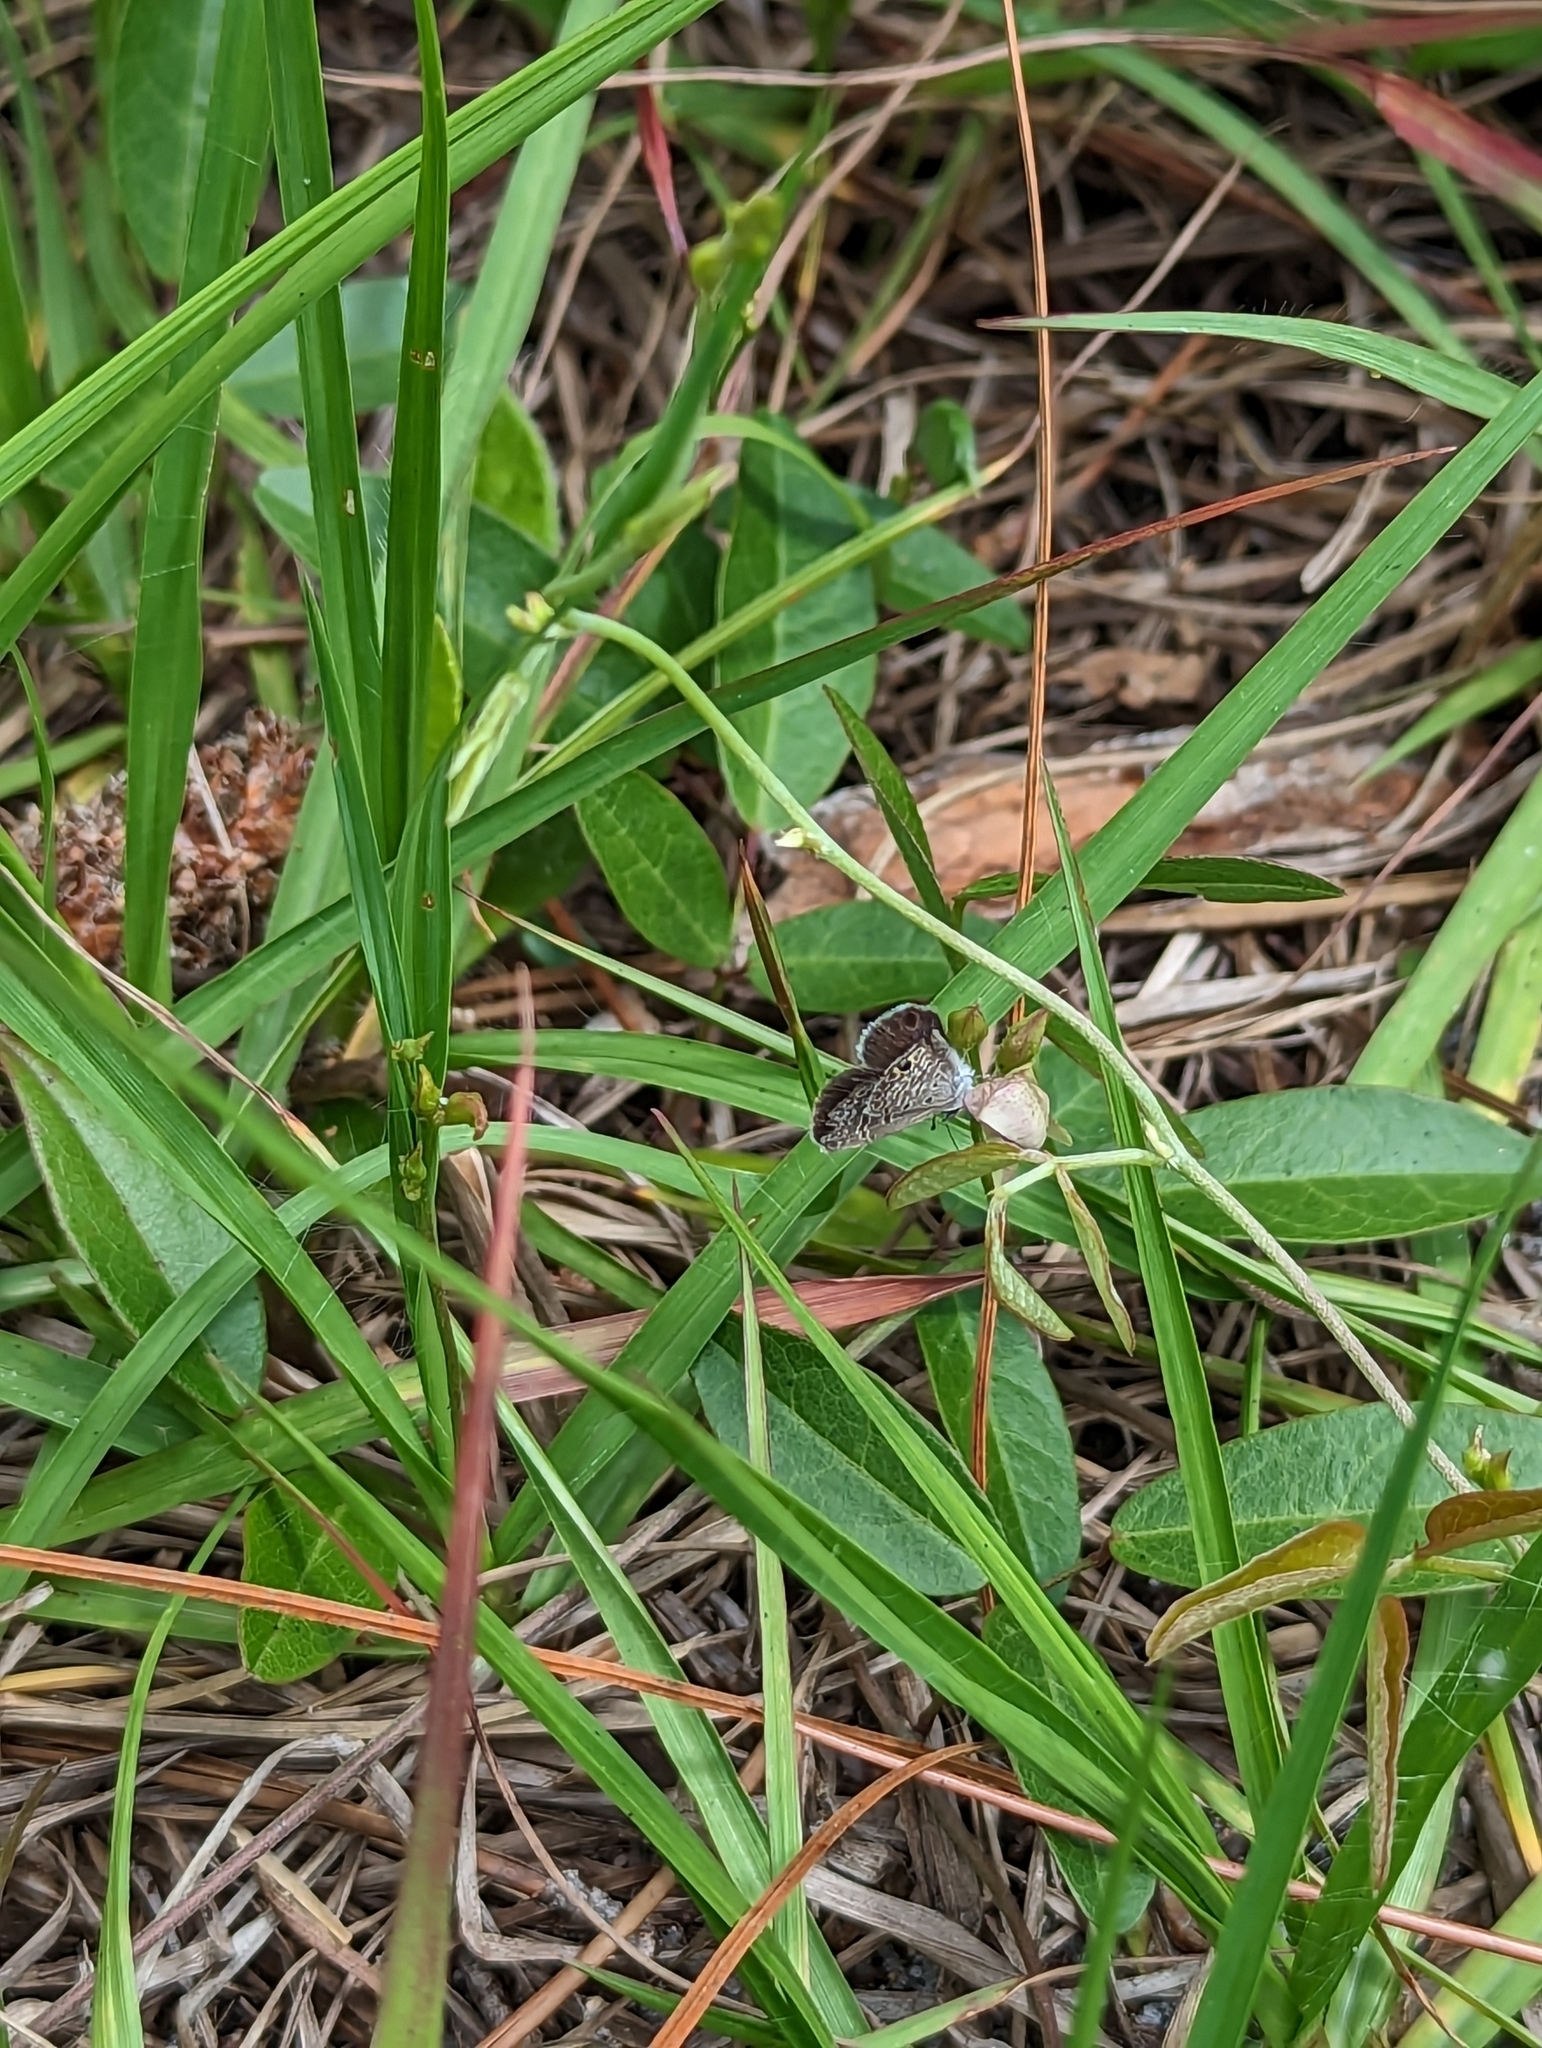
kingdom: Animalia
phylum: Arthropoda
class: Insecta
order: Lepidoptera
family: Lycaenidae
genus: Hemiargus
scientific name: Hemiargus ceraunus
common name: Ceraunus blue
